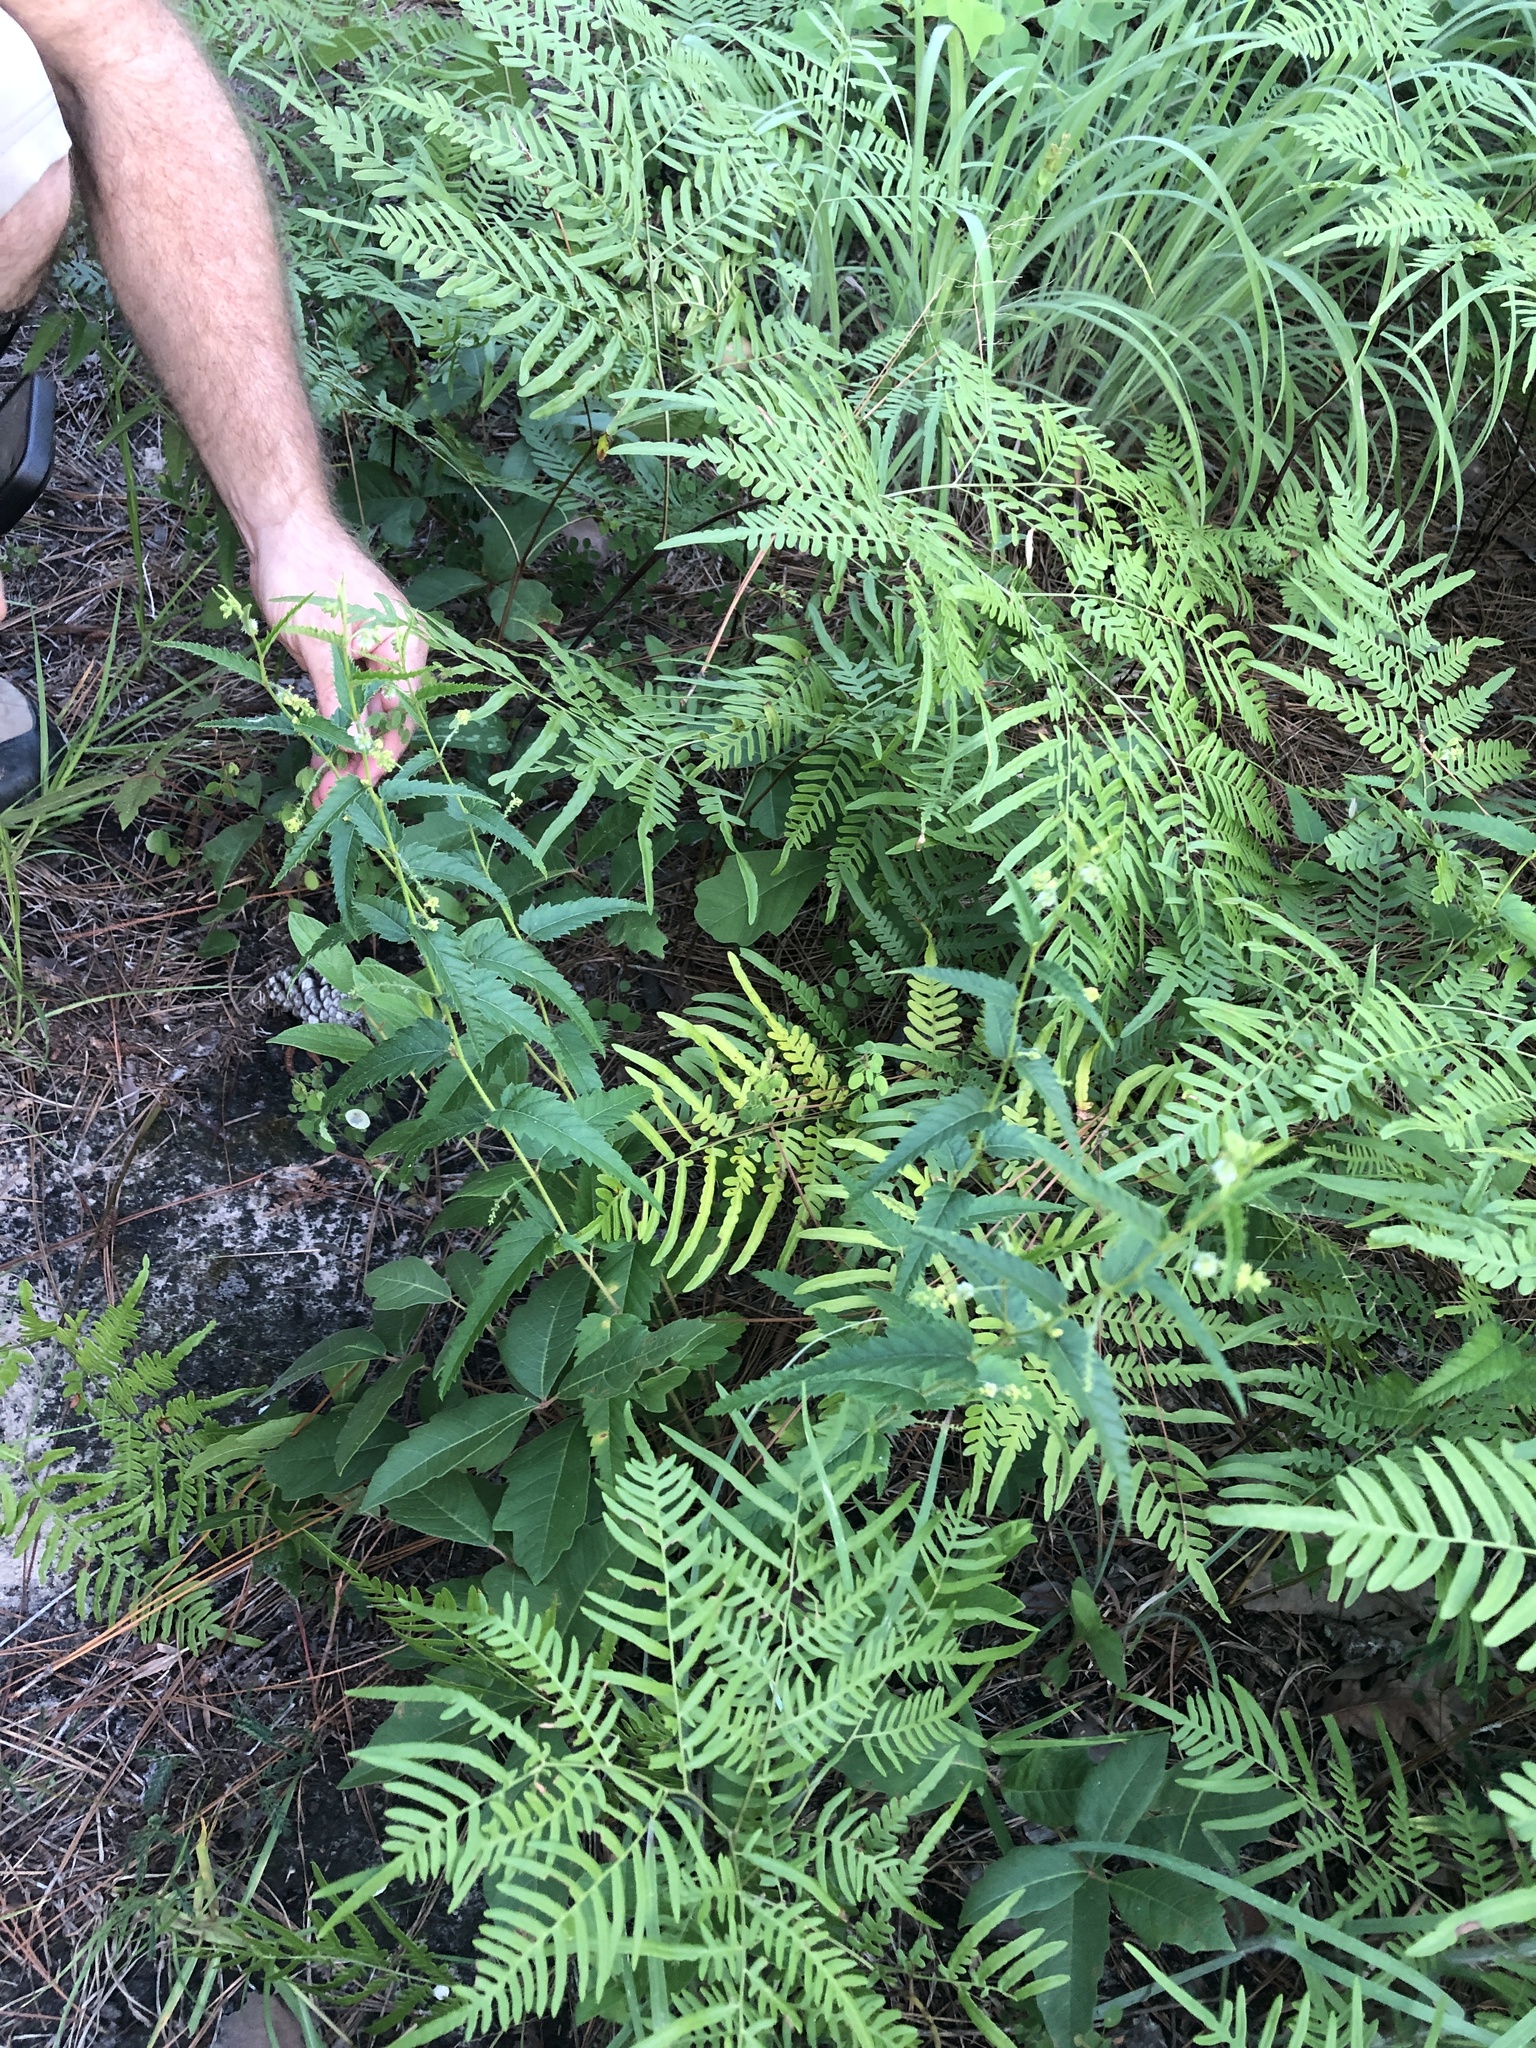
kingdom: Plantae
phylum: Tracheophyta
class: Magnoliopsida
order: Malpighiales
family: Euphorbiaceae
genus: Tragia
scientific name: Tragia urticifolia
